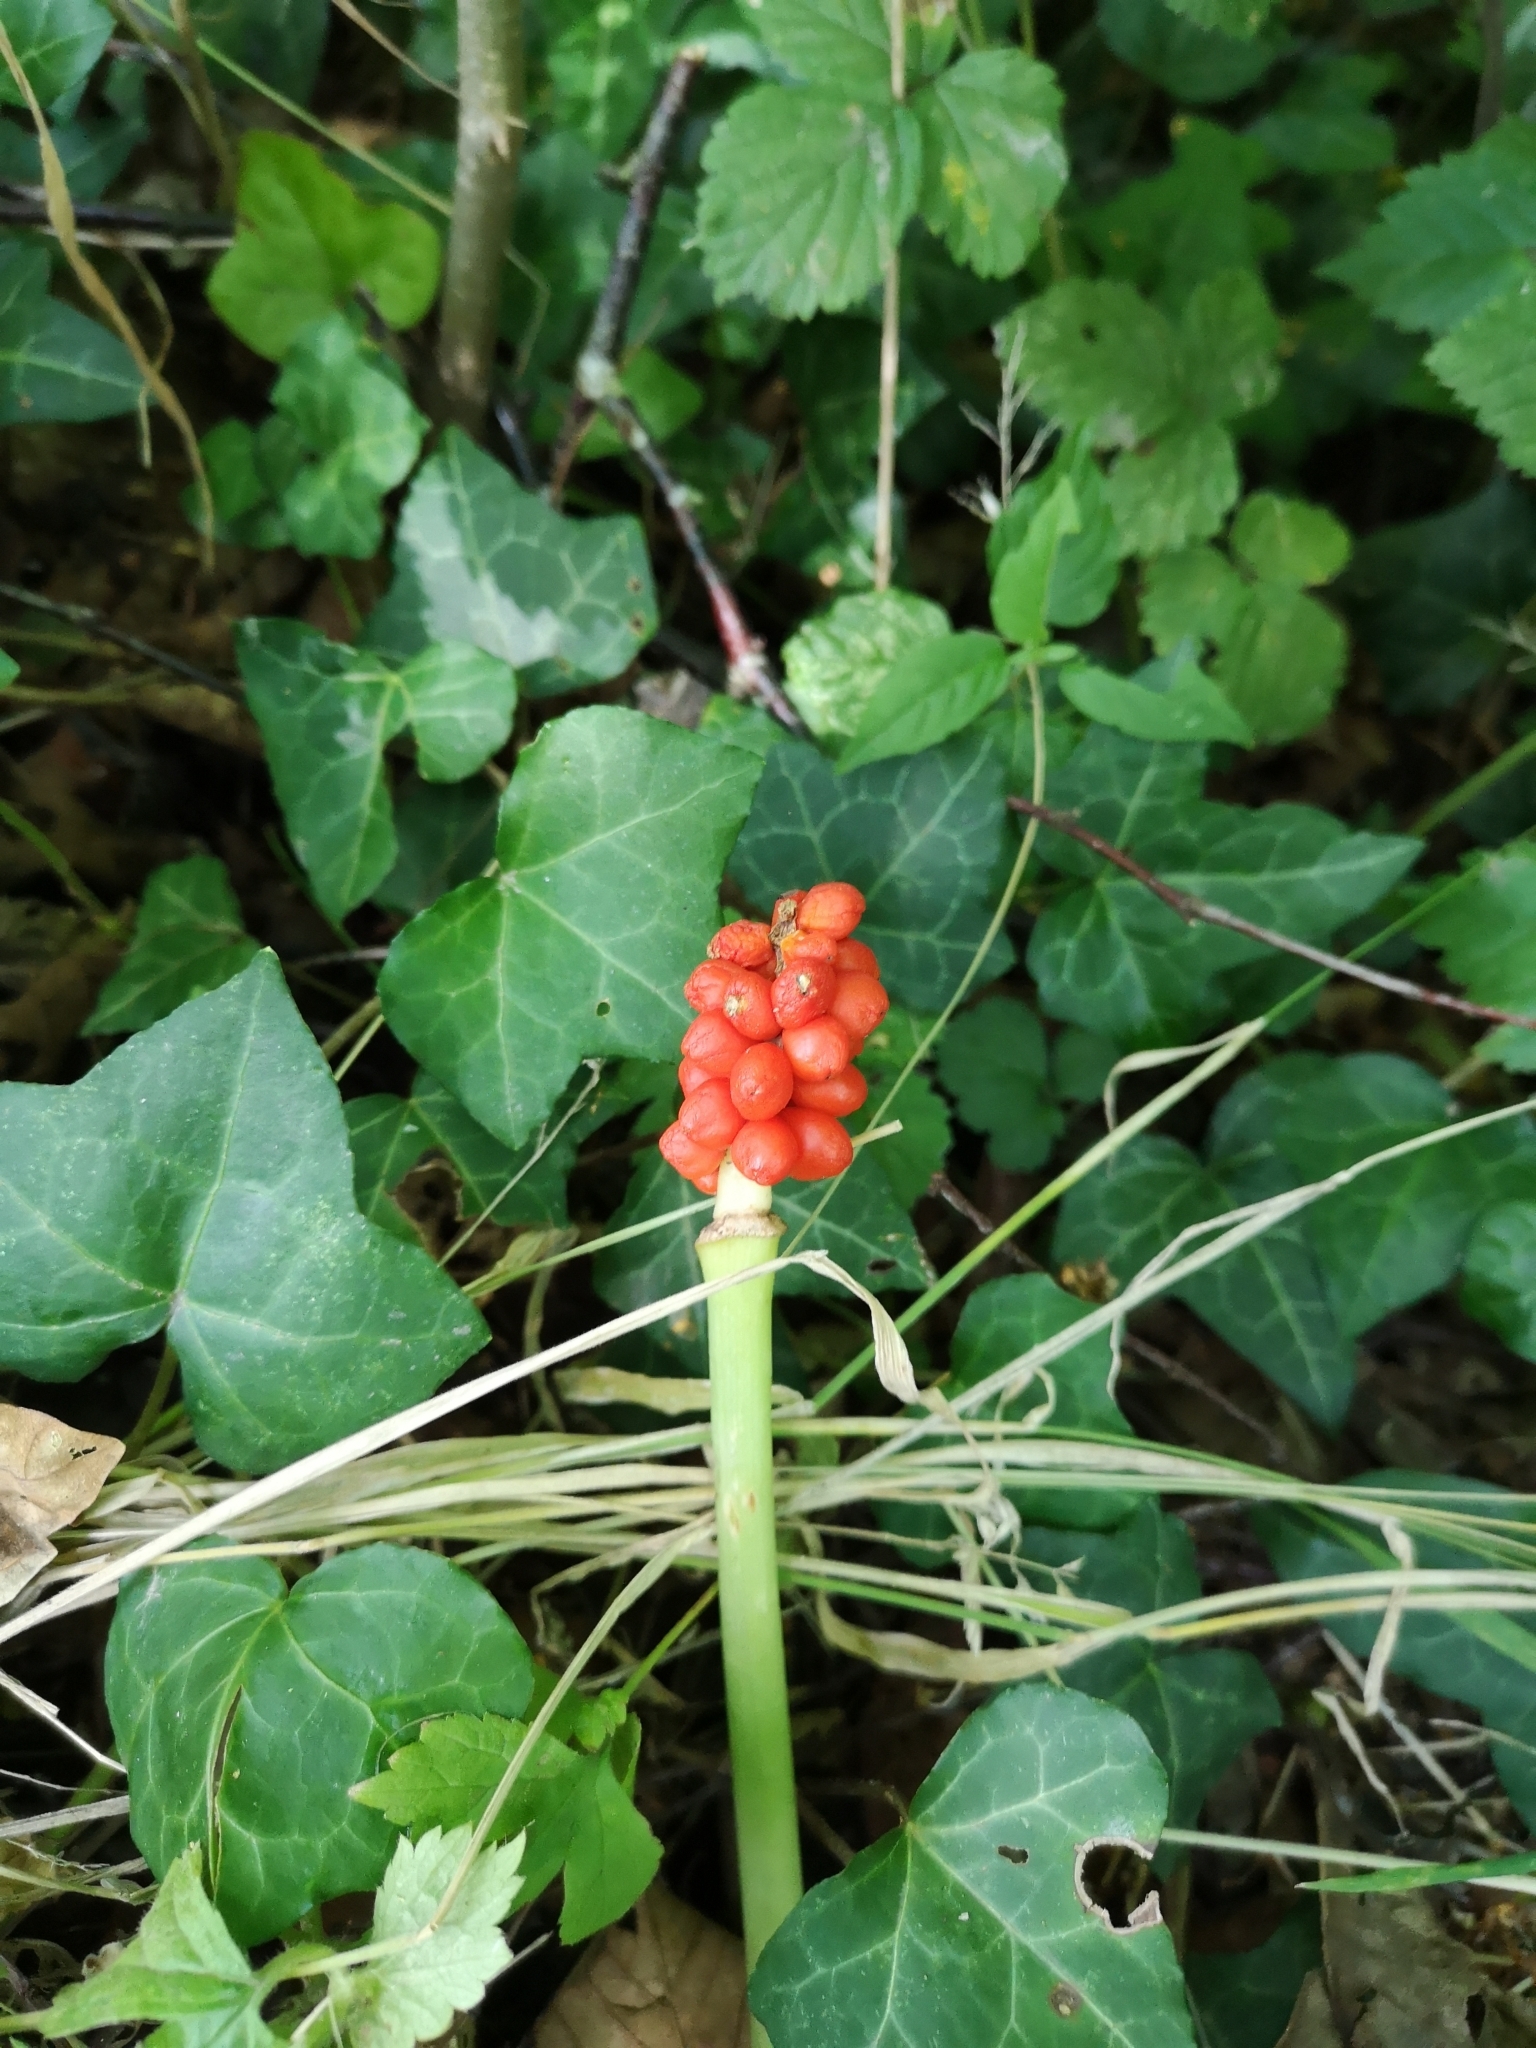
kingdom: Plantae
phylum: Tracheophyta
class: Liliopsida
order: Alismatales
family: Araceae
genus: Arum
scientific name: Arum maculatum
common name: Lords-and-ladies
